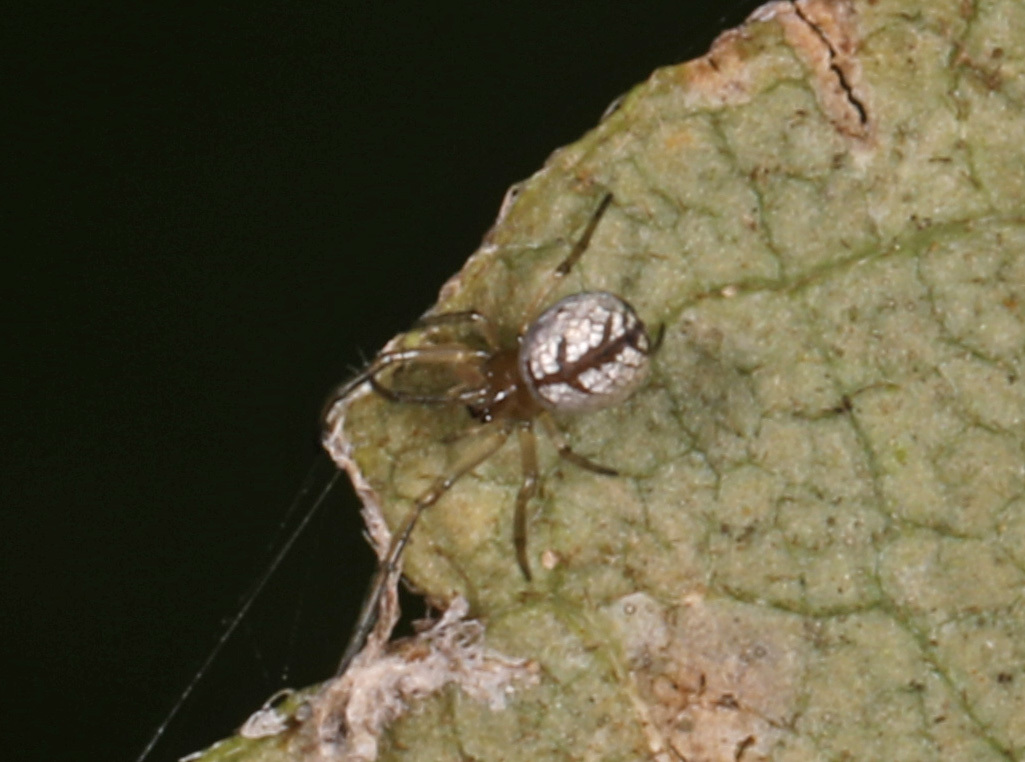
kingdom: Animalia
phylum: Arthropoda
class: Arachnida
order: Araneae
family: Tetragnathidae
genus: Leucauge
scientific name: Leucauge
